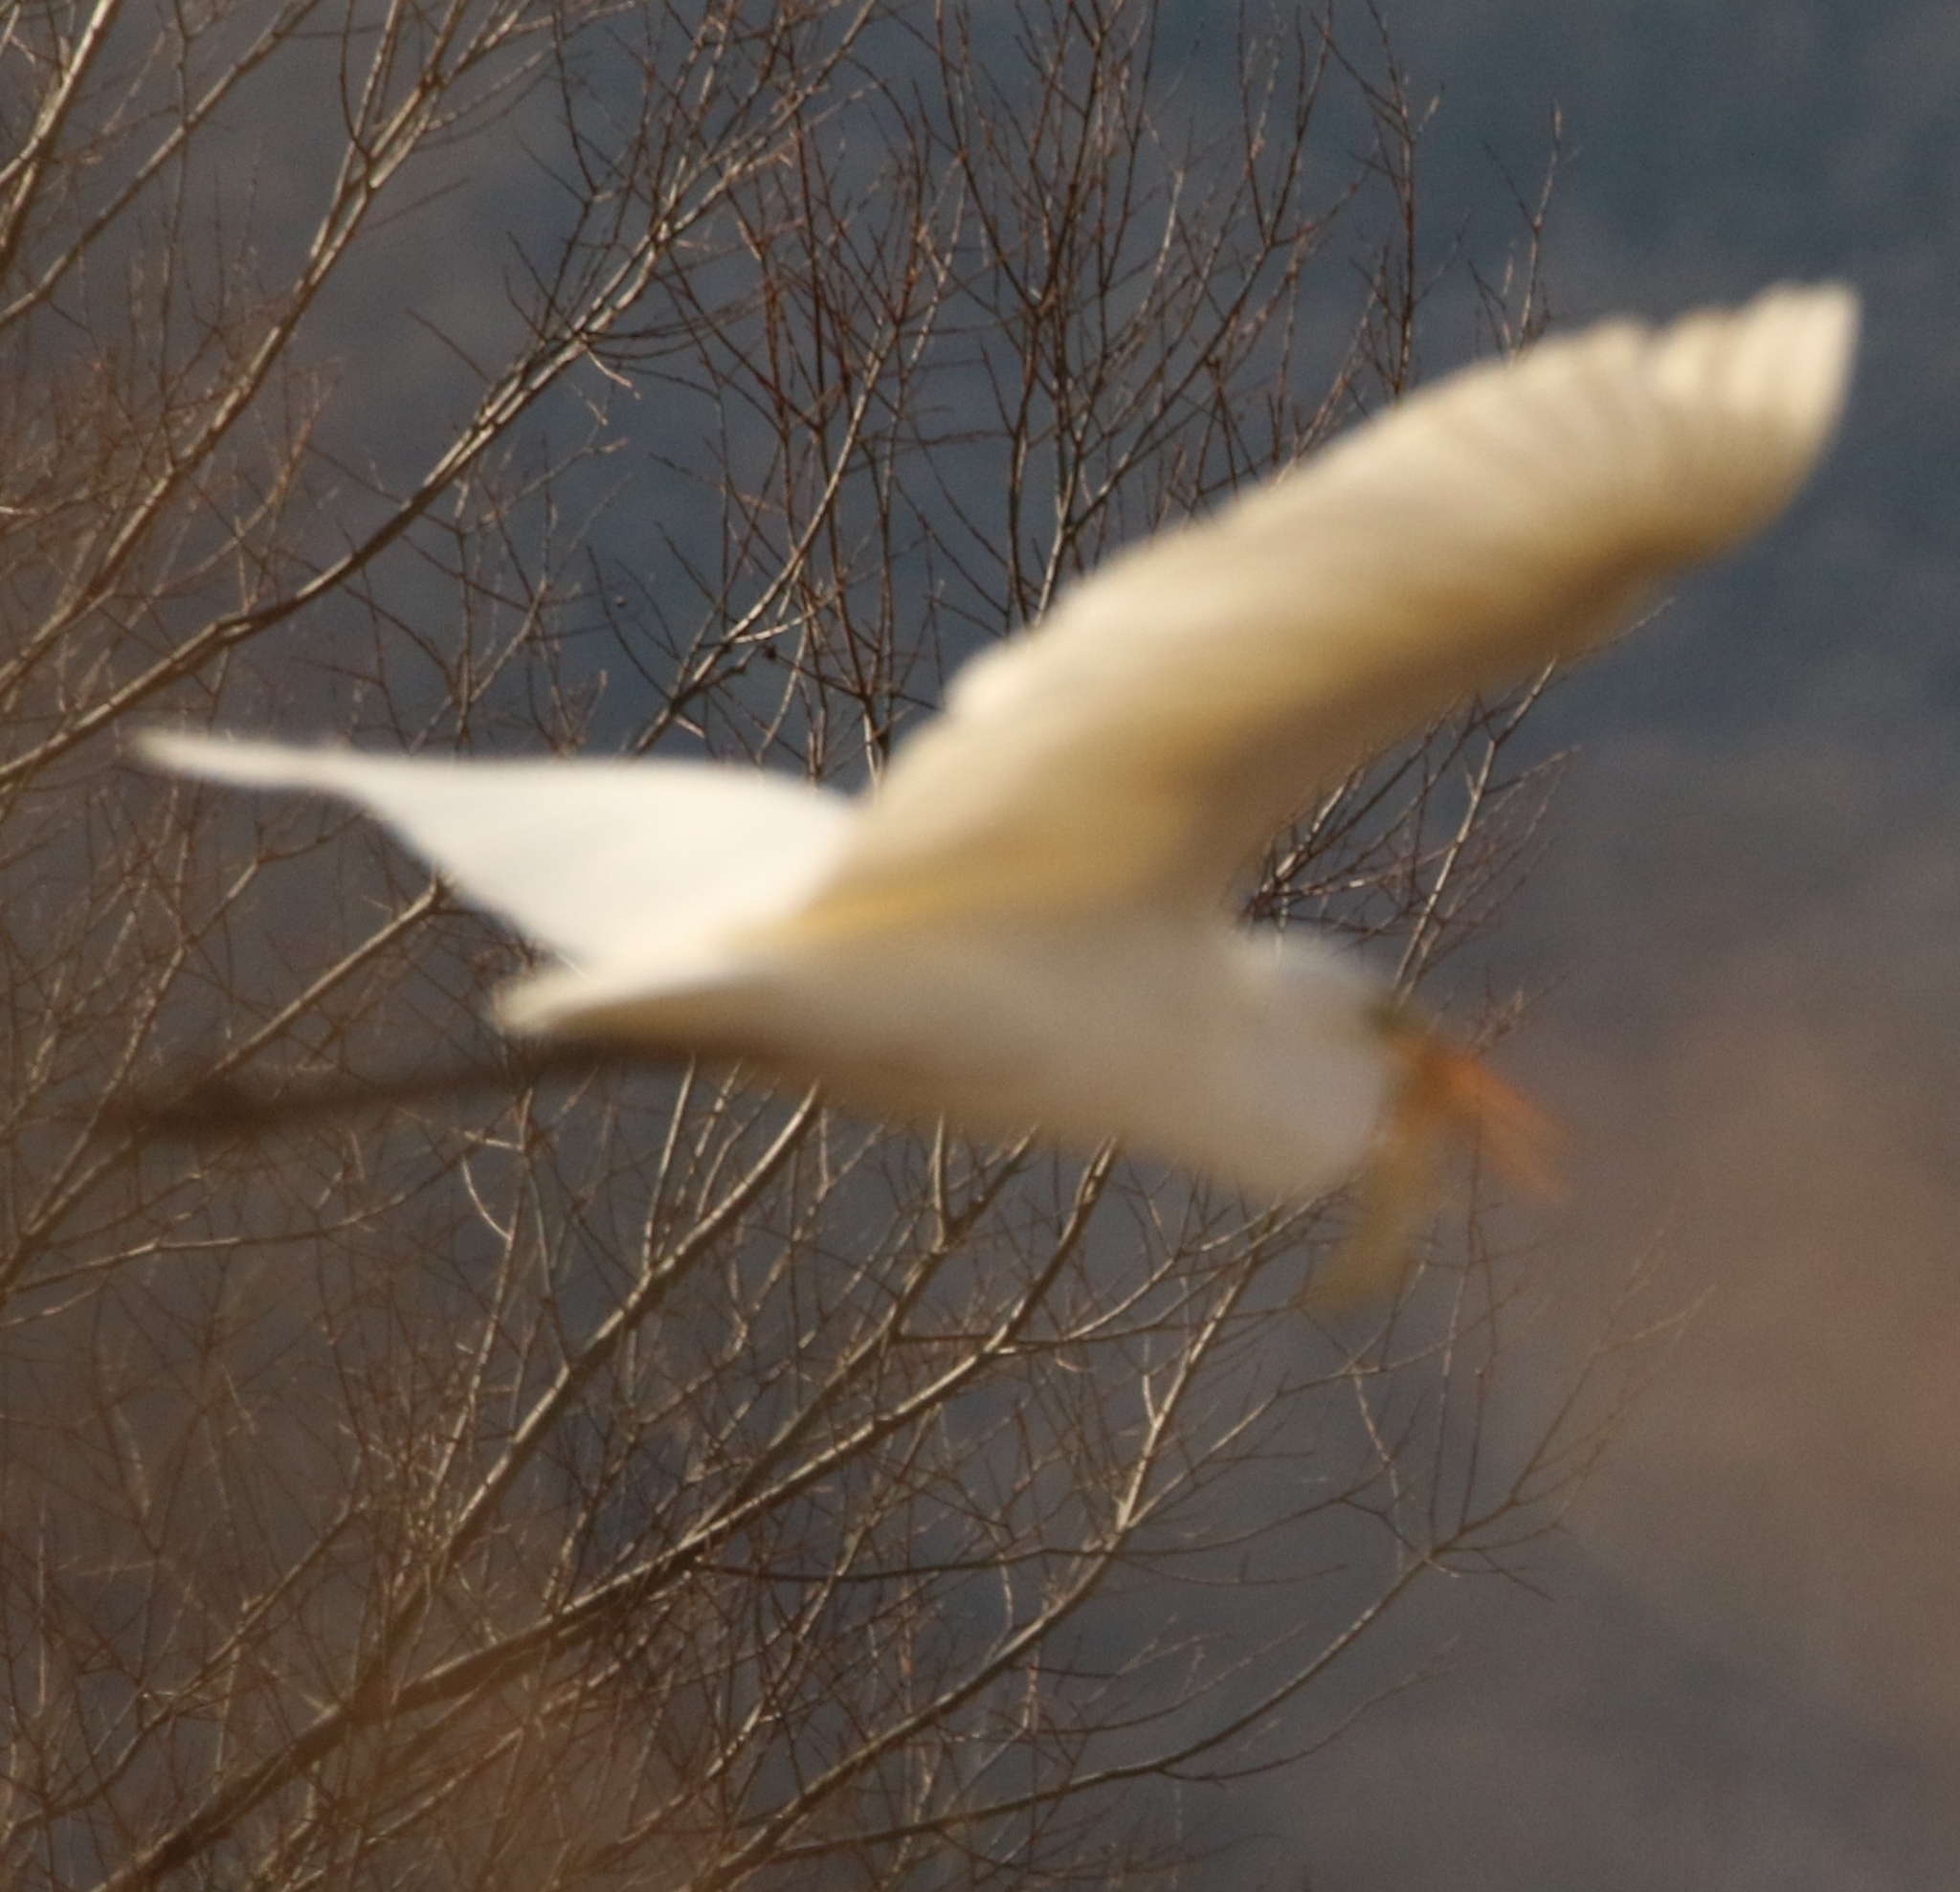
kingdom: Animalia
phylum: Chordata
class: Aves
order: Pelecaniformes
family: Ardeidae
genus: Ardea
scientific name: Ardea alba
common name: Great egret
